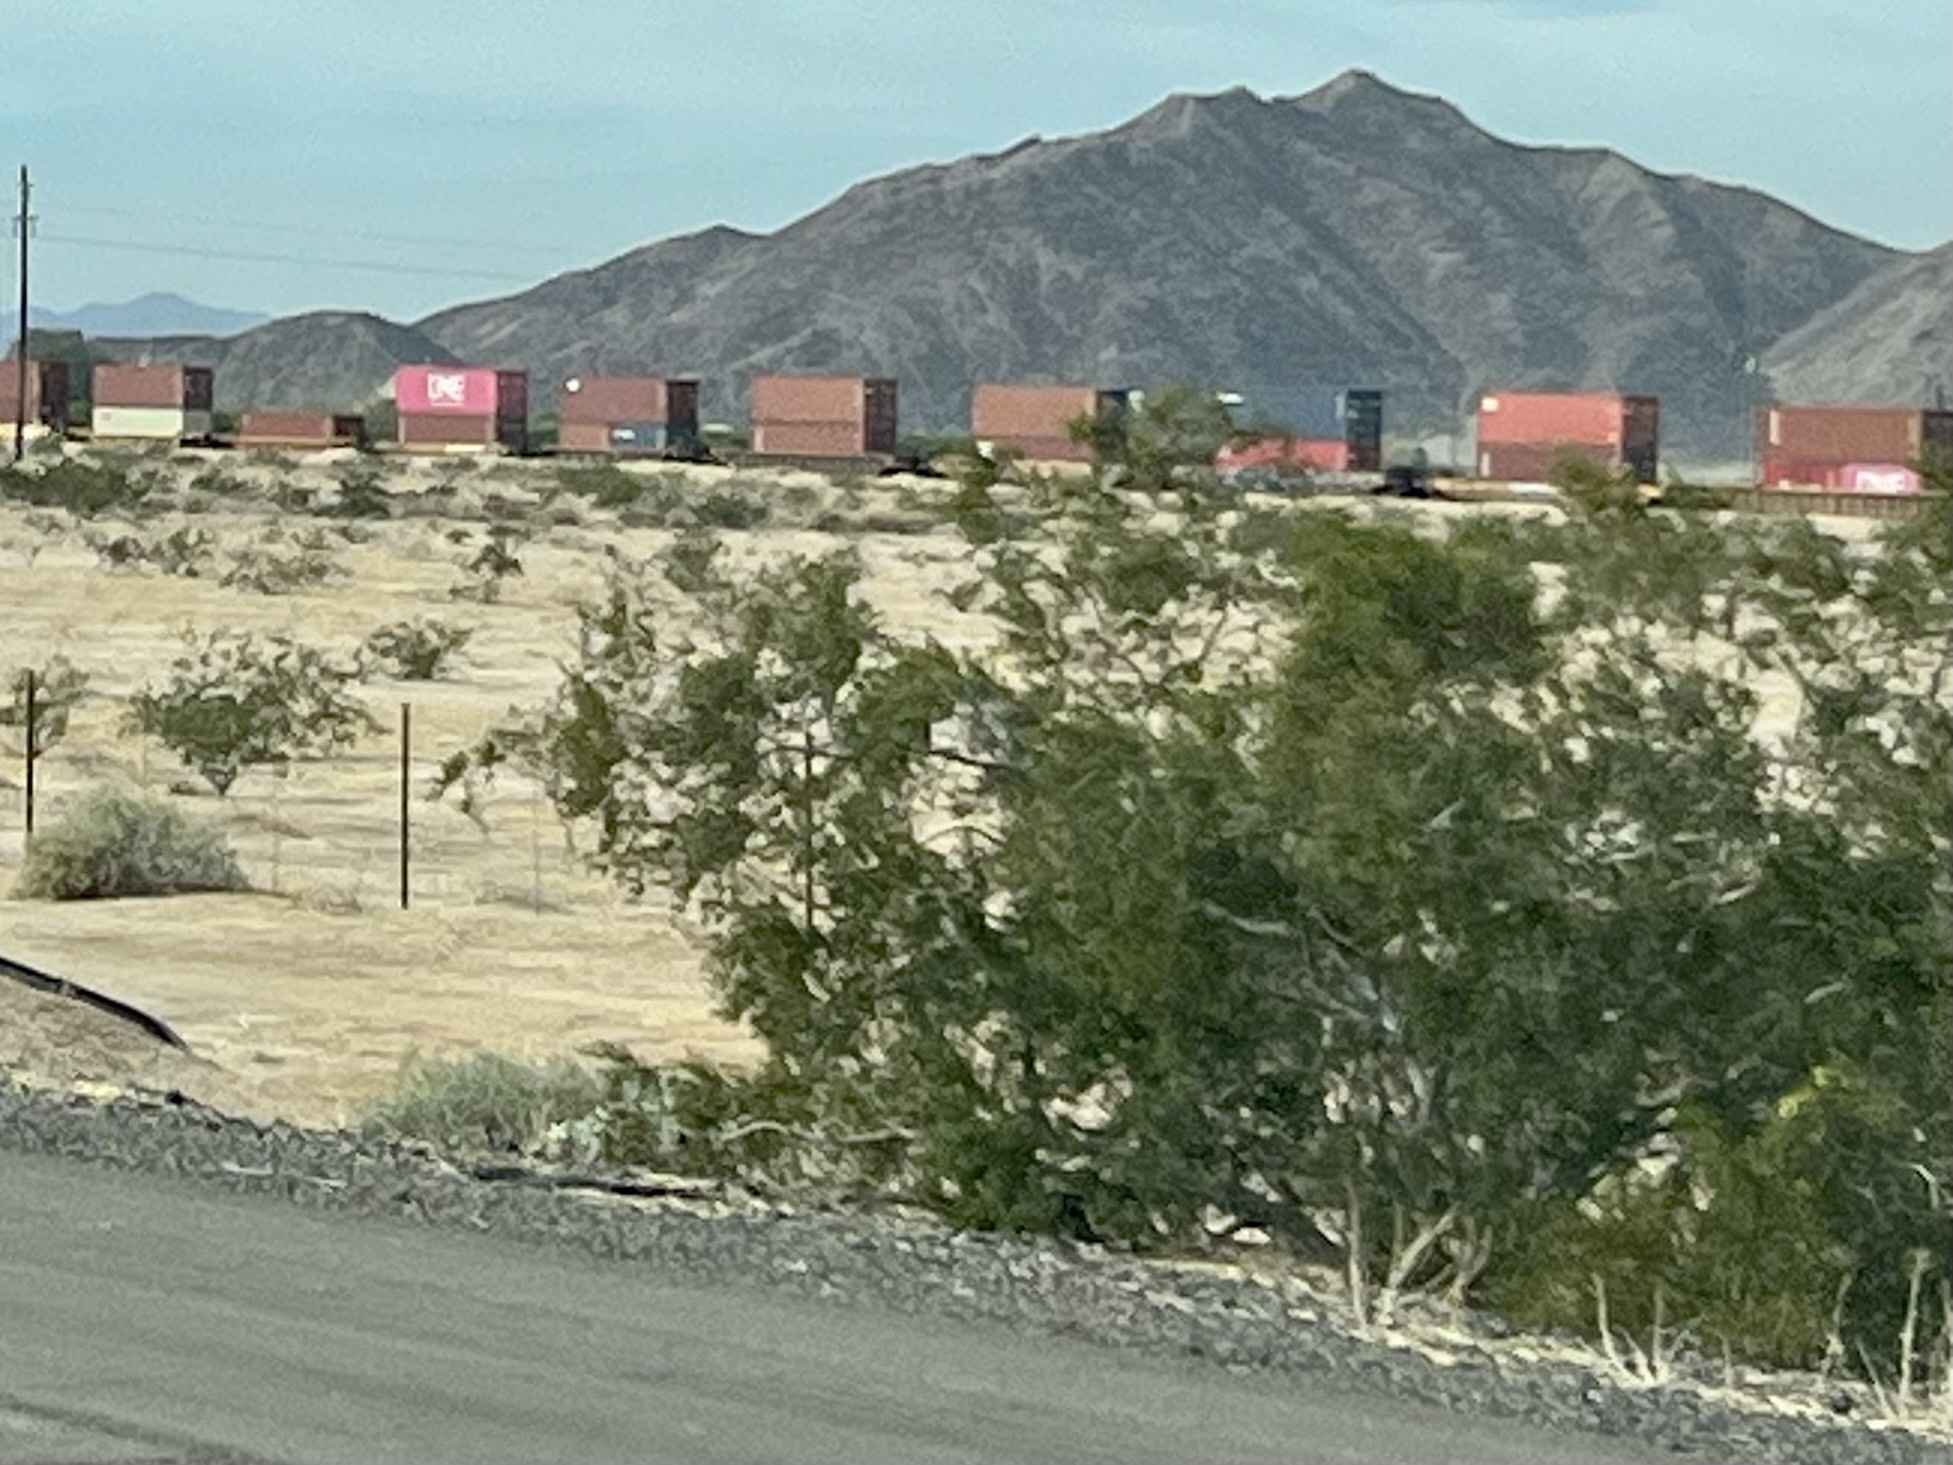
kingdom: Plantae
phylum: Tracheophyta
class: Magnoliopsida
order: Zygophyllales
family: Zygophyllaceae
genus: Larrea
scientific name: Larrea tridentata
